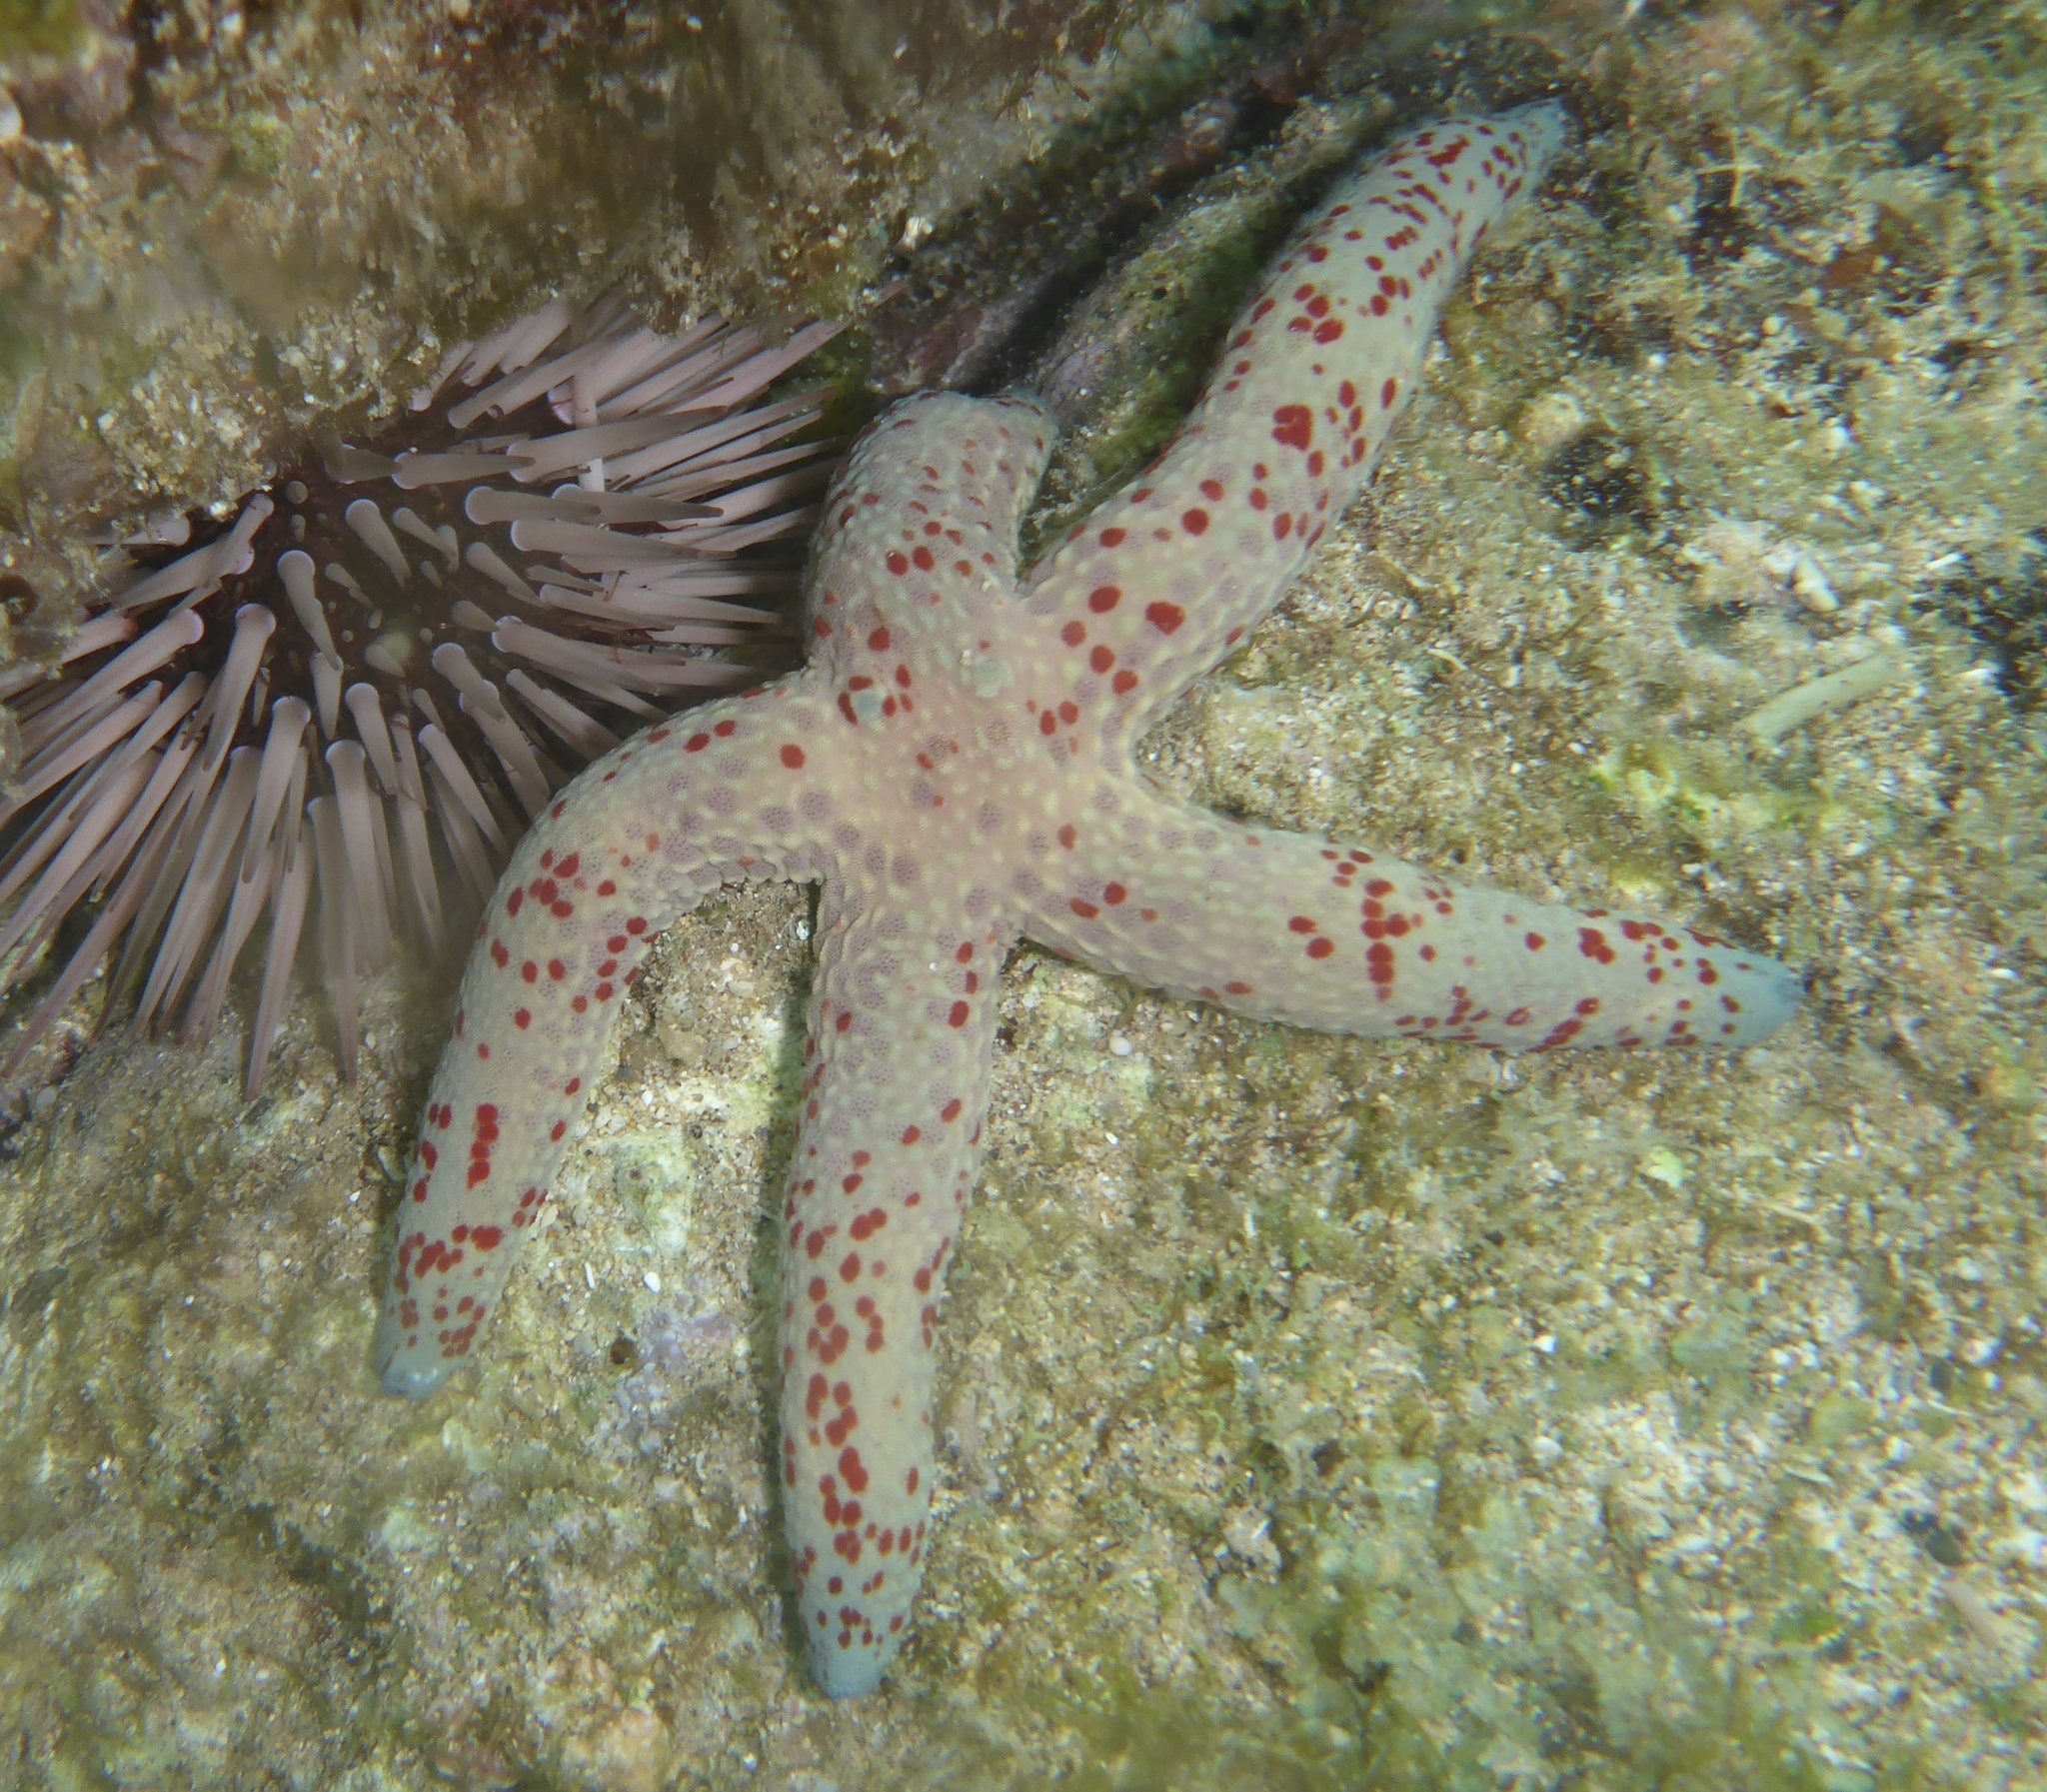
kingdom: Animalia
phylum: Echinodermata
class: Asteroidea
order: Valvatida
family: Ophidiasteridae
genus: Linckia
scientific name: Linckia multifora
